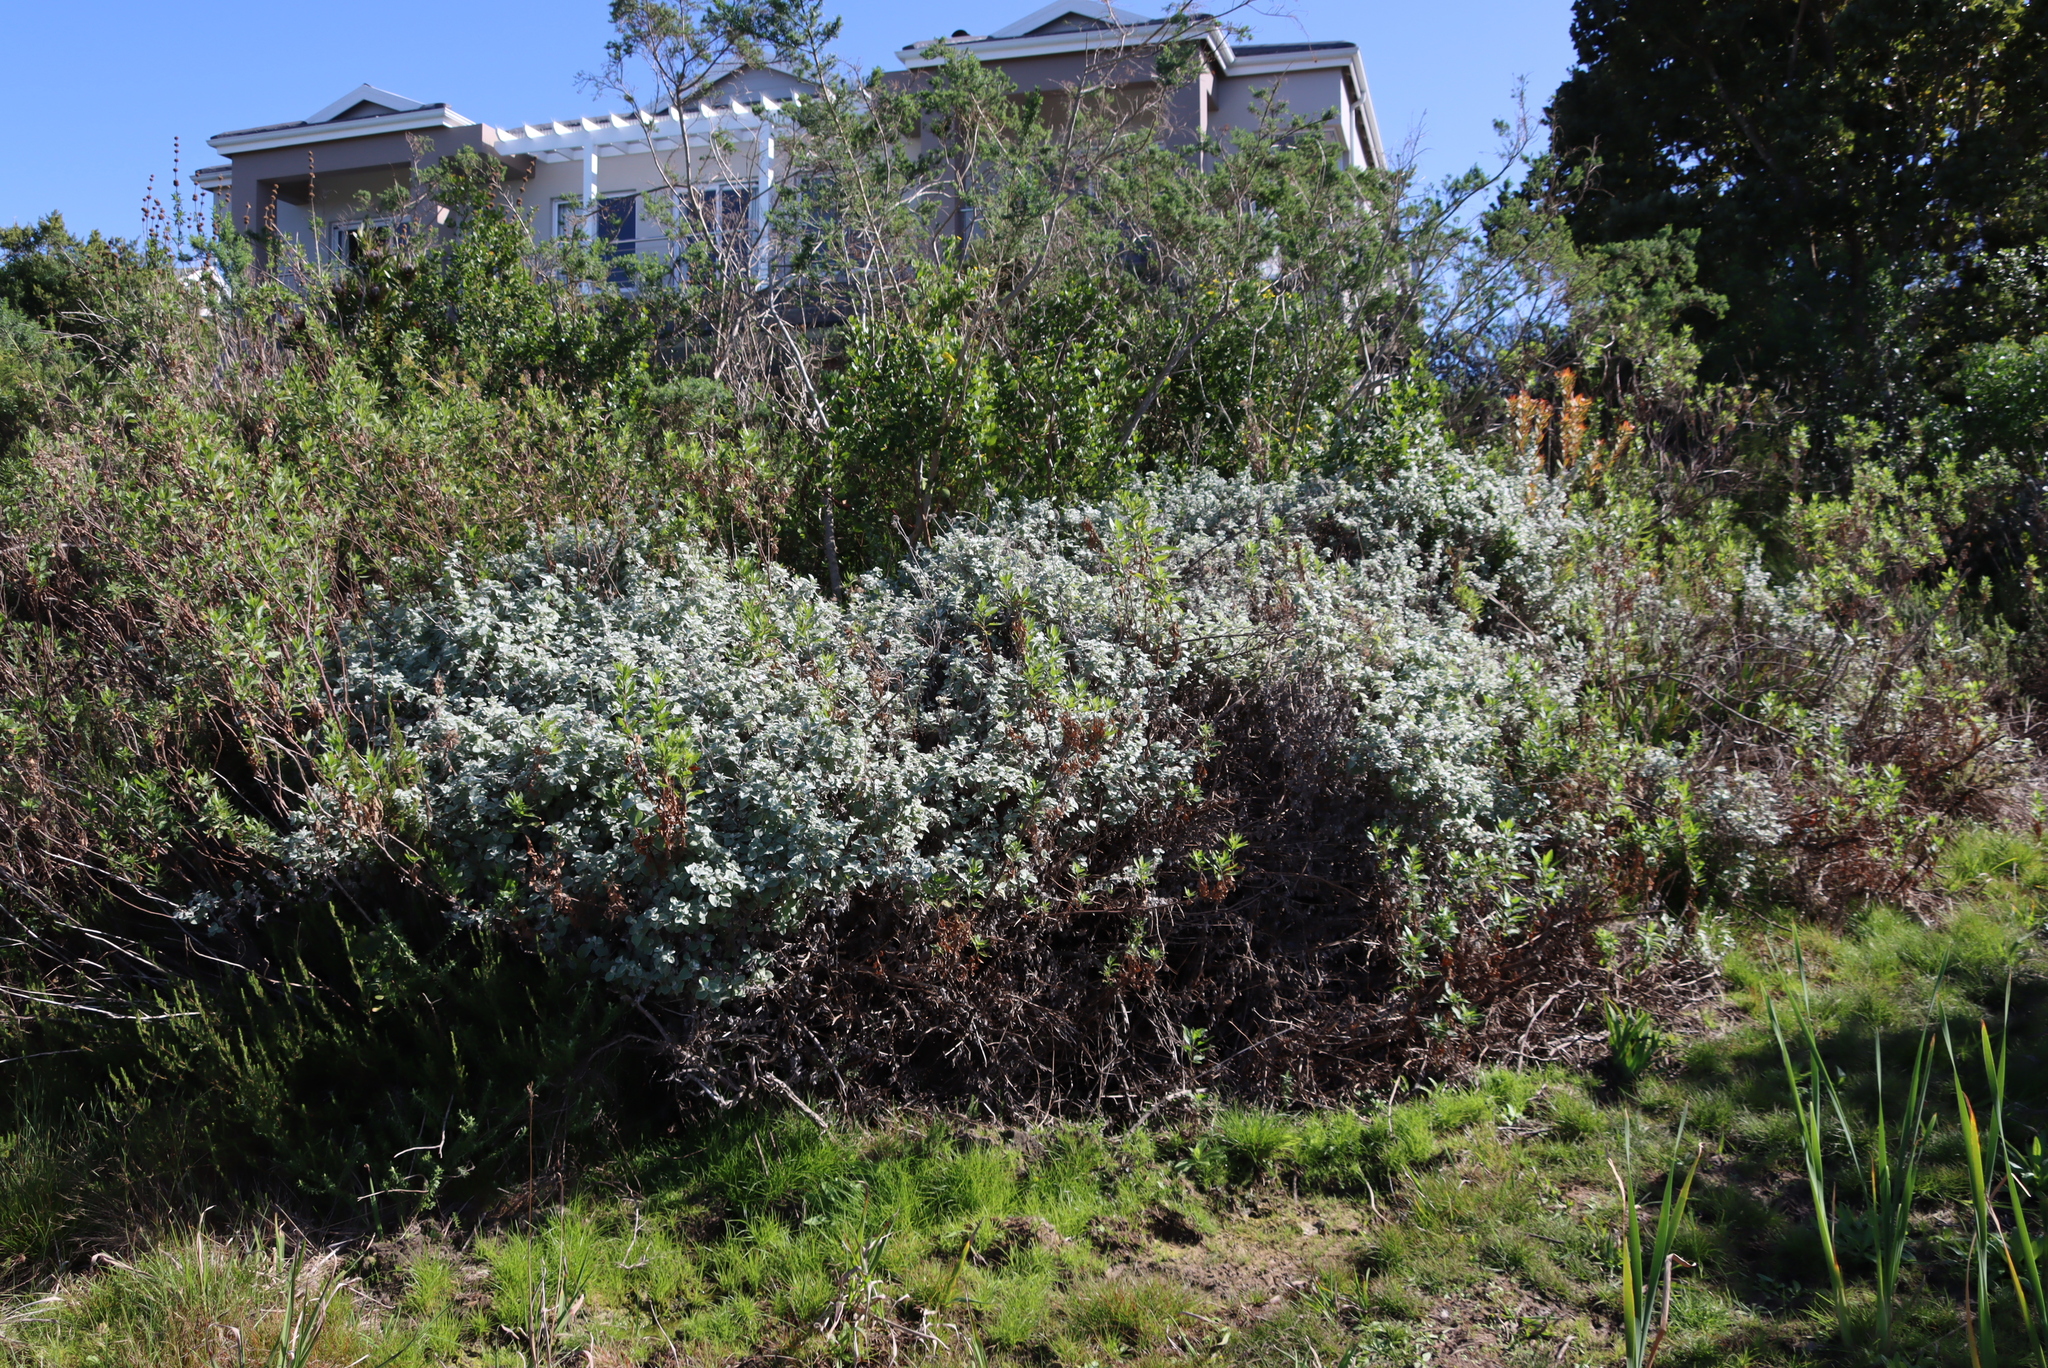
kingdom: Plantae
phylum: Tracheophyta
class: Magnoliopsida
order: Asterales
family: Asteraceae
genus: Helichrysum
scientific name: Helichrysum petiolare
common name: Licorice-plant
